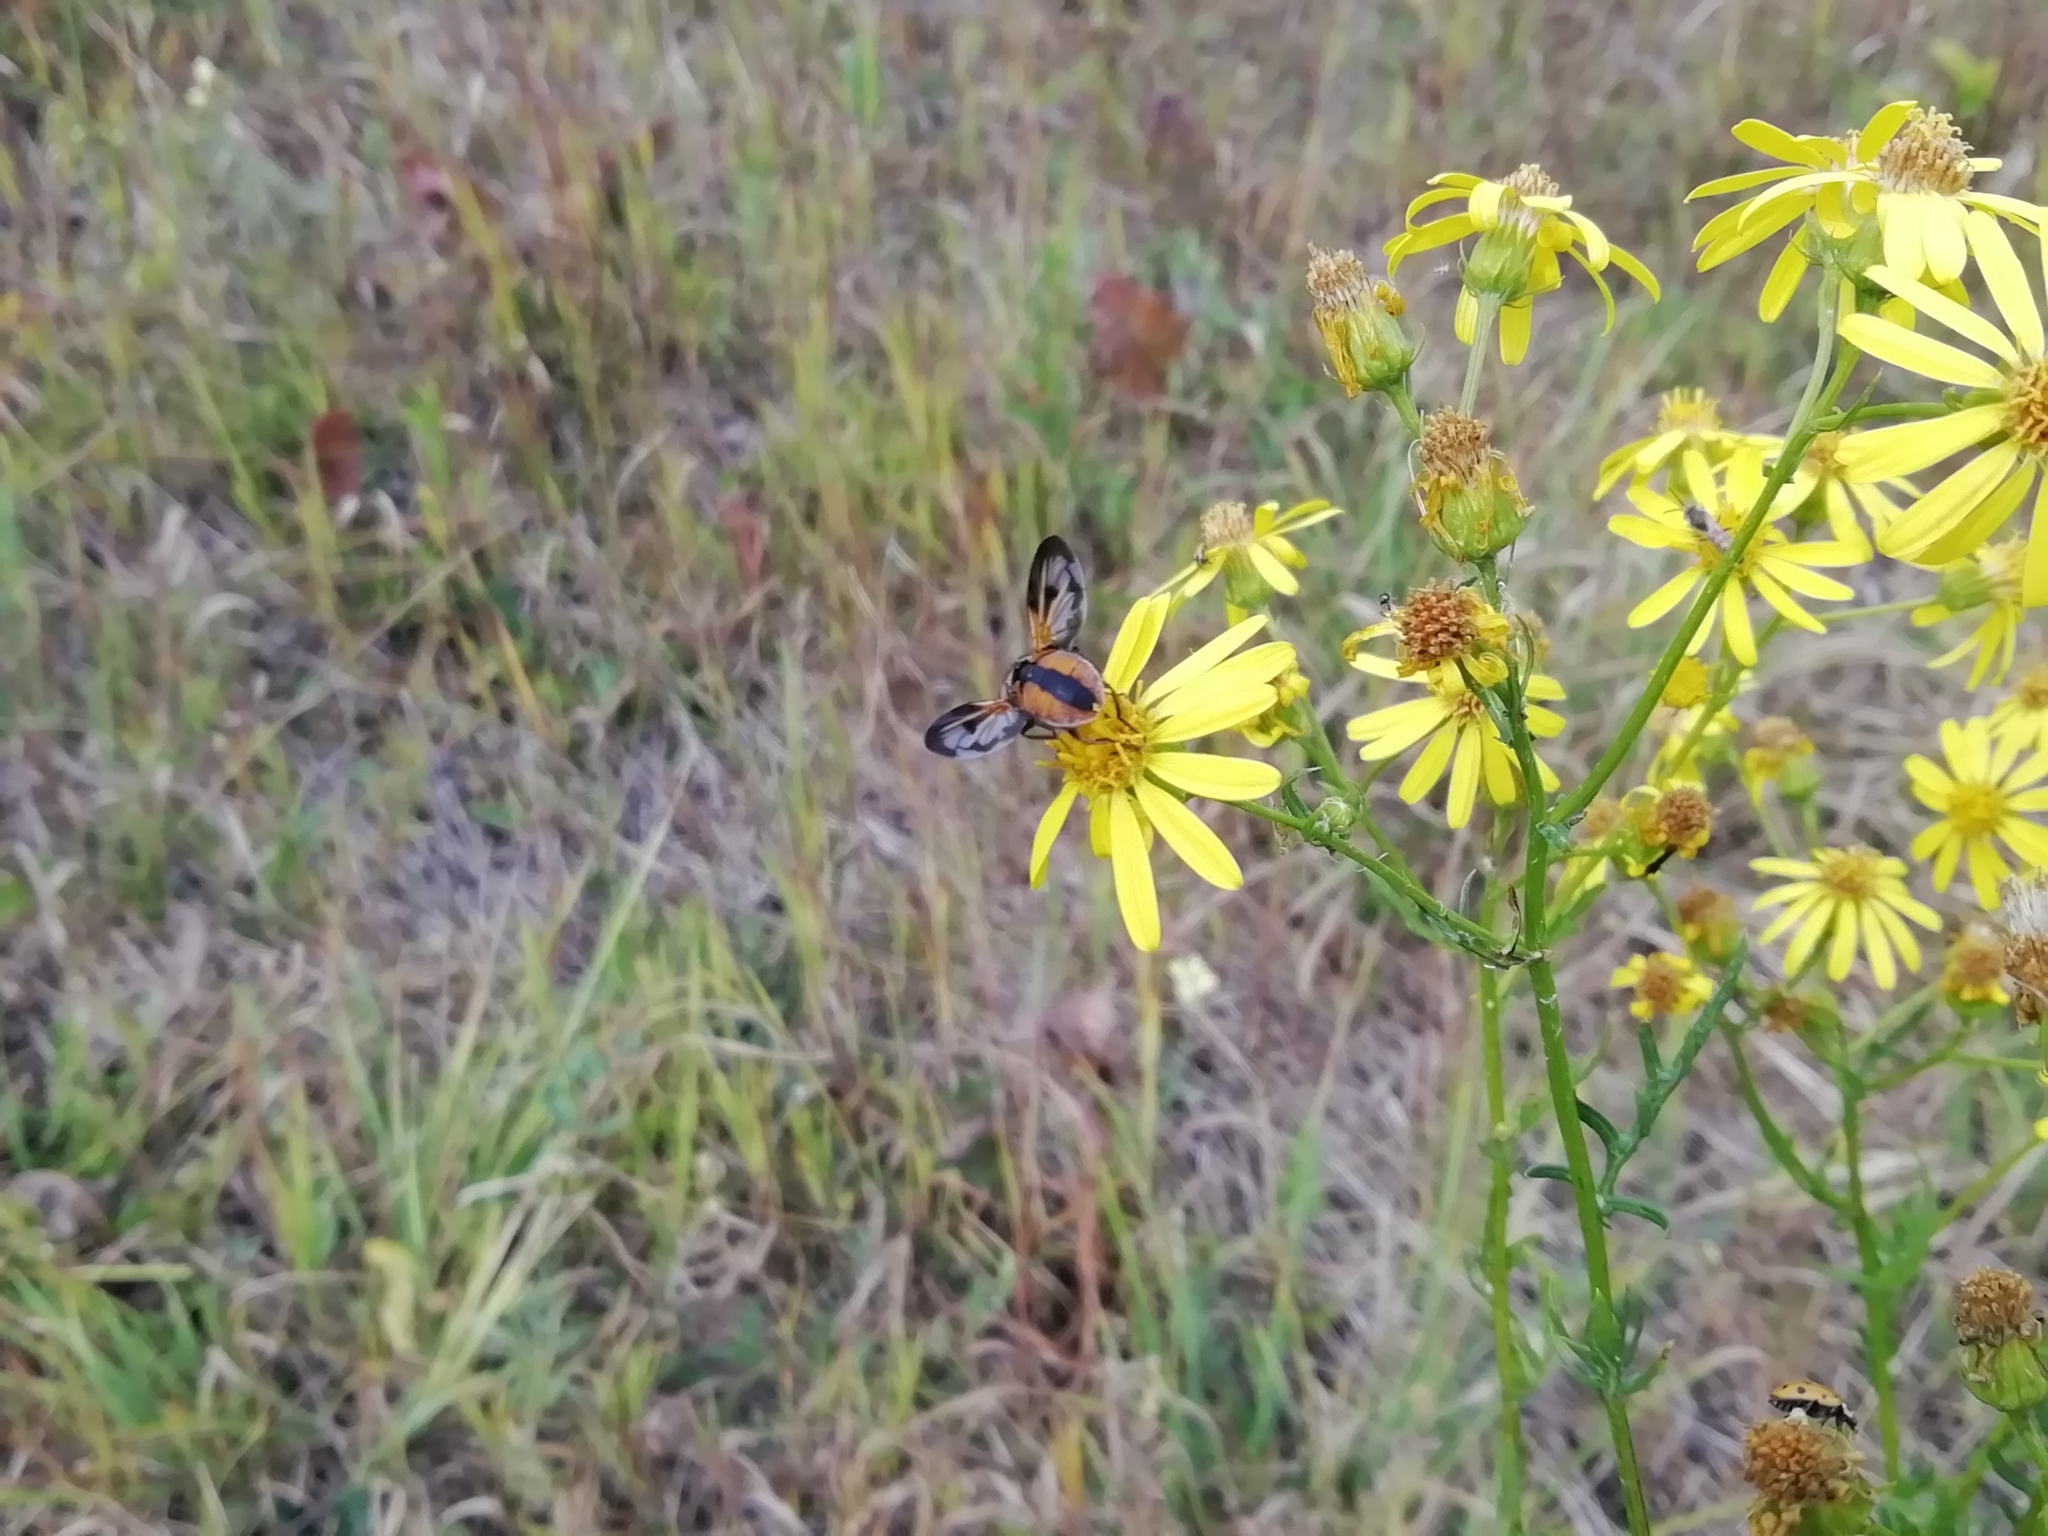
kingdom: Animalia
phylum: Arthropoda
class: Insecta
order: Diptera
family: Tachinidae
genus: Ectophasia
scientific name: Ectophasia crassipennis
